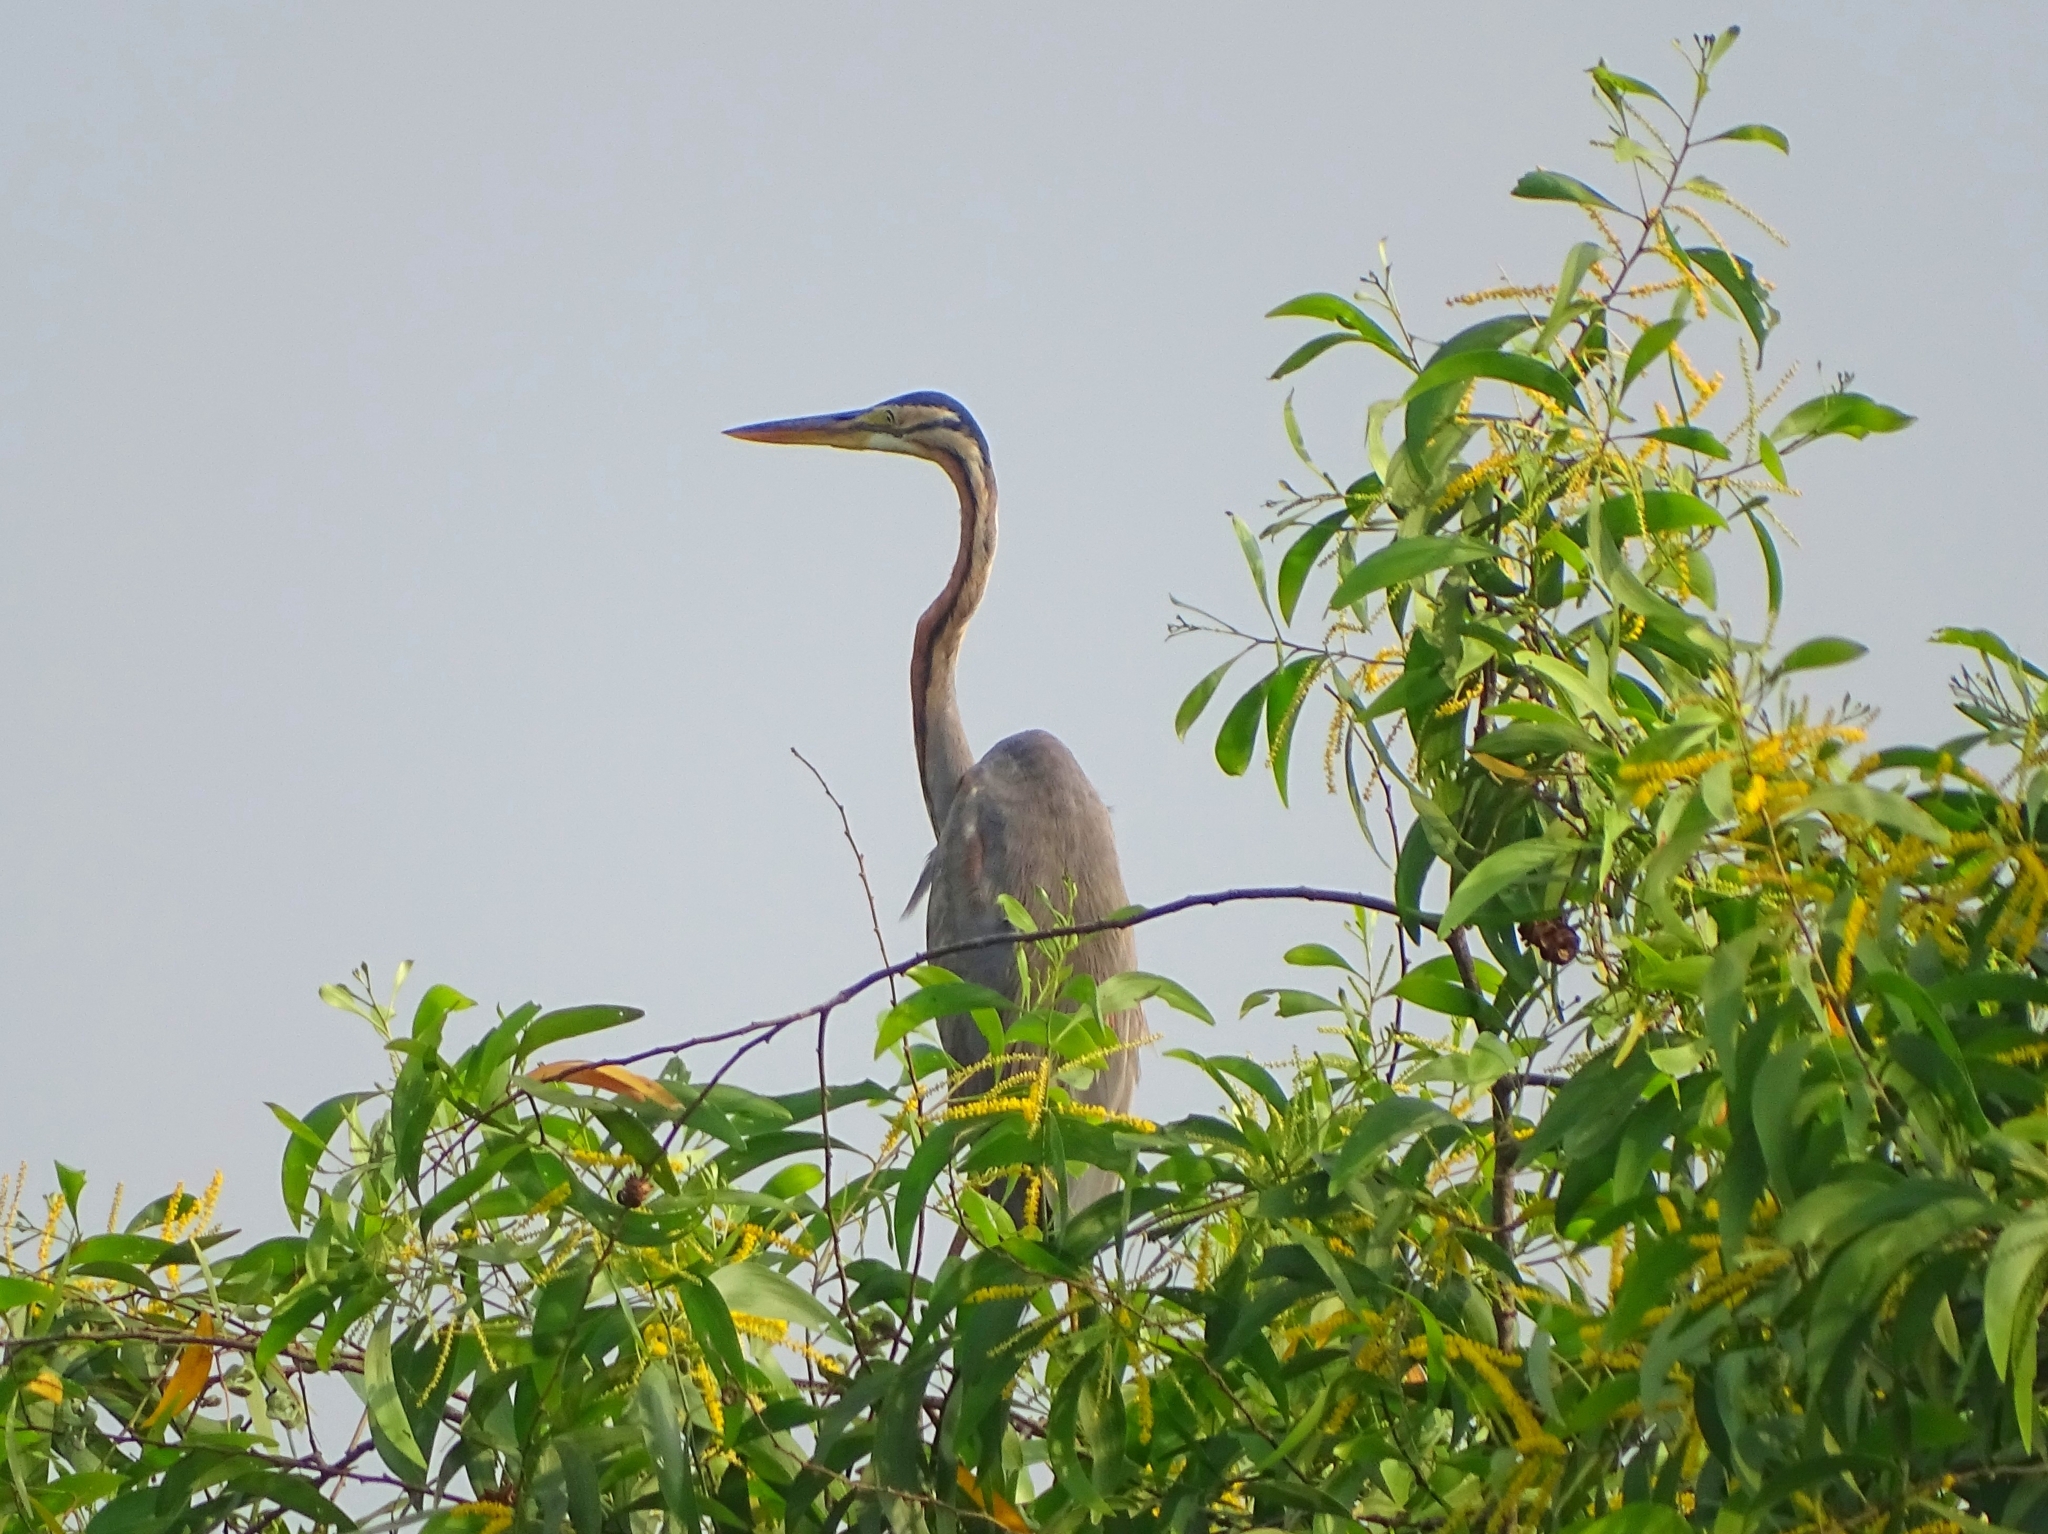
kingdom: Animalia
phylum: Chordata
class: Aves
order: Pelecaniformes
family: Ardeidae
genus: Ardea
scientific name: Ardea purpurea
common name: Purple heron
